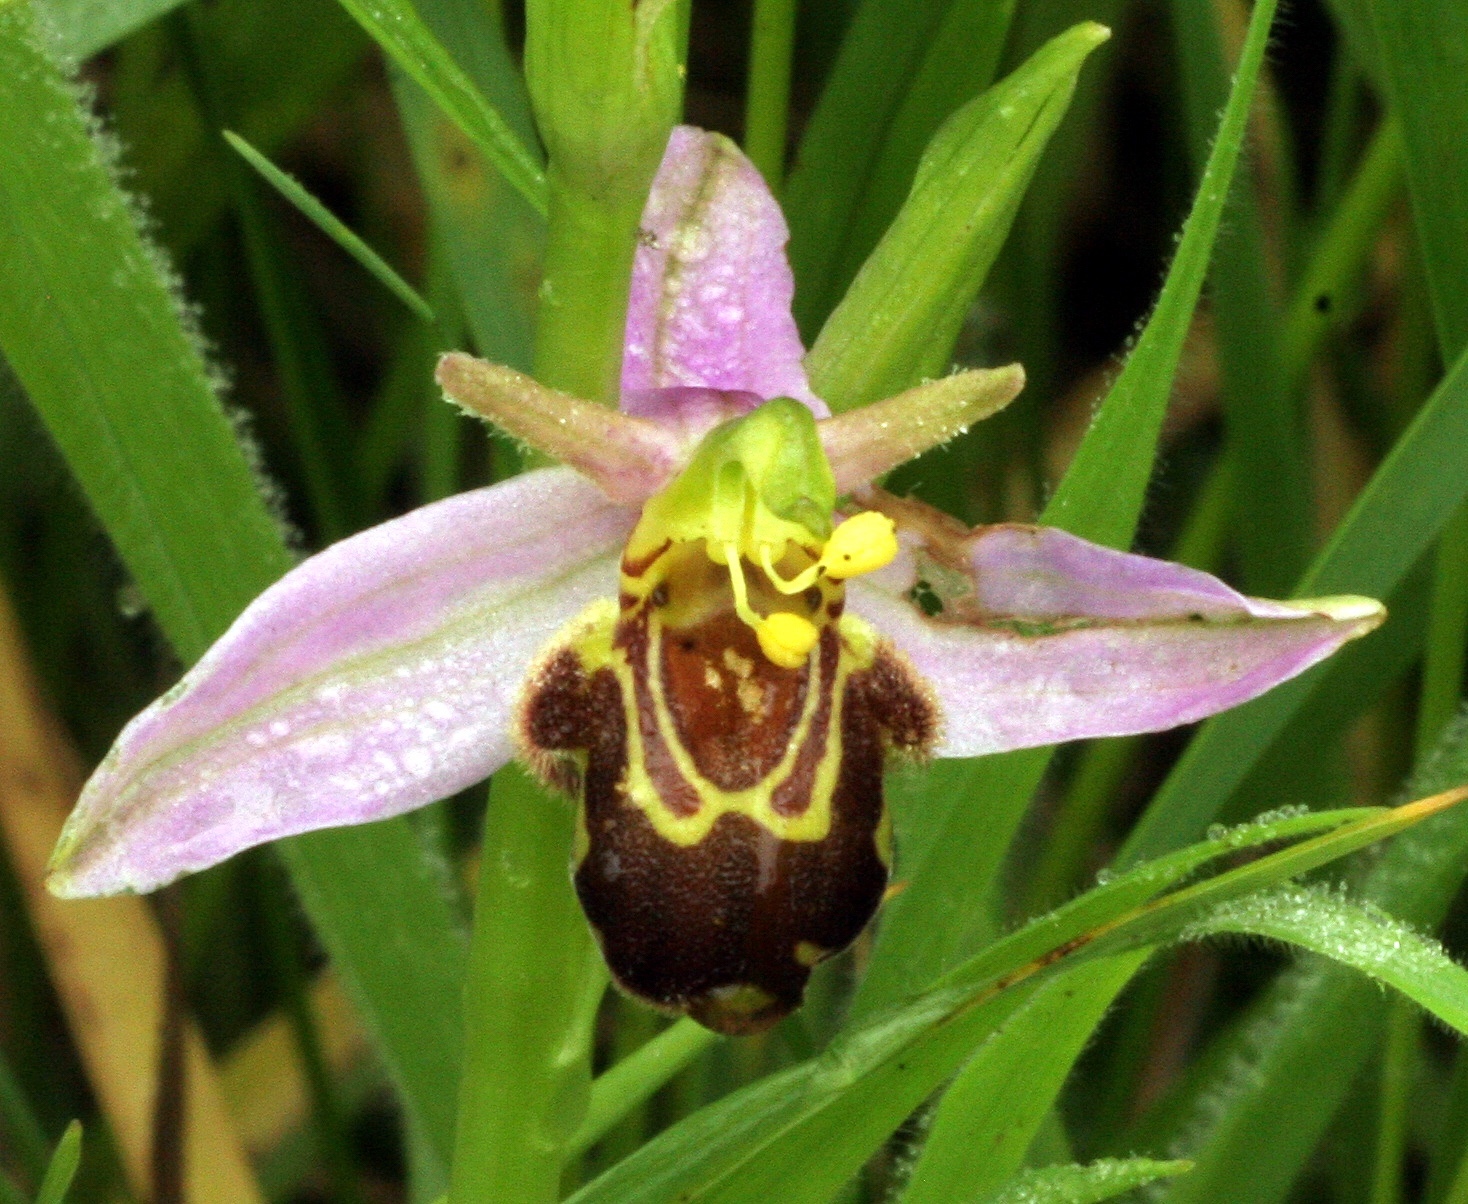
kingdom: Plantae
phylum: Tracheophyta
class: Liliopsida
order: Asparagales
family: Orchidaceae
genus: Ophrys
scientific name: Ophrys apifera
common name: Bee orchid
